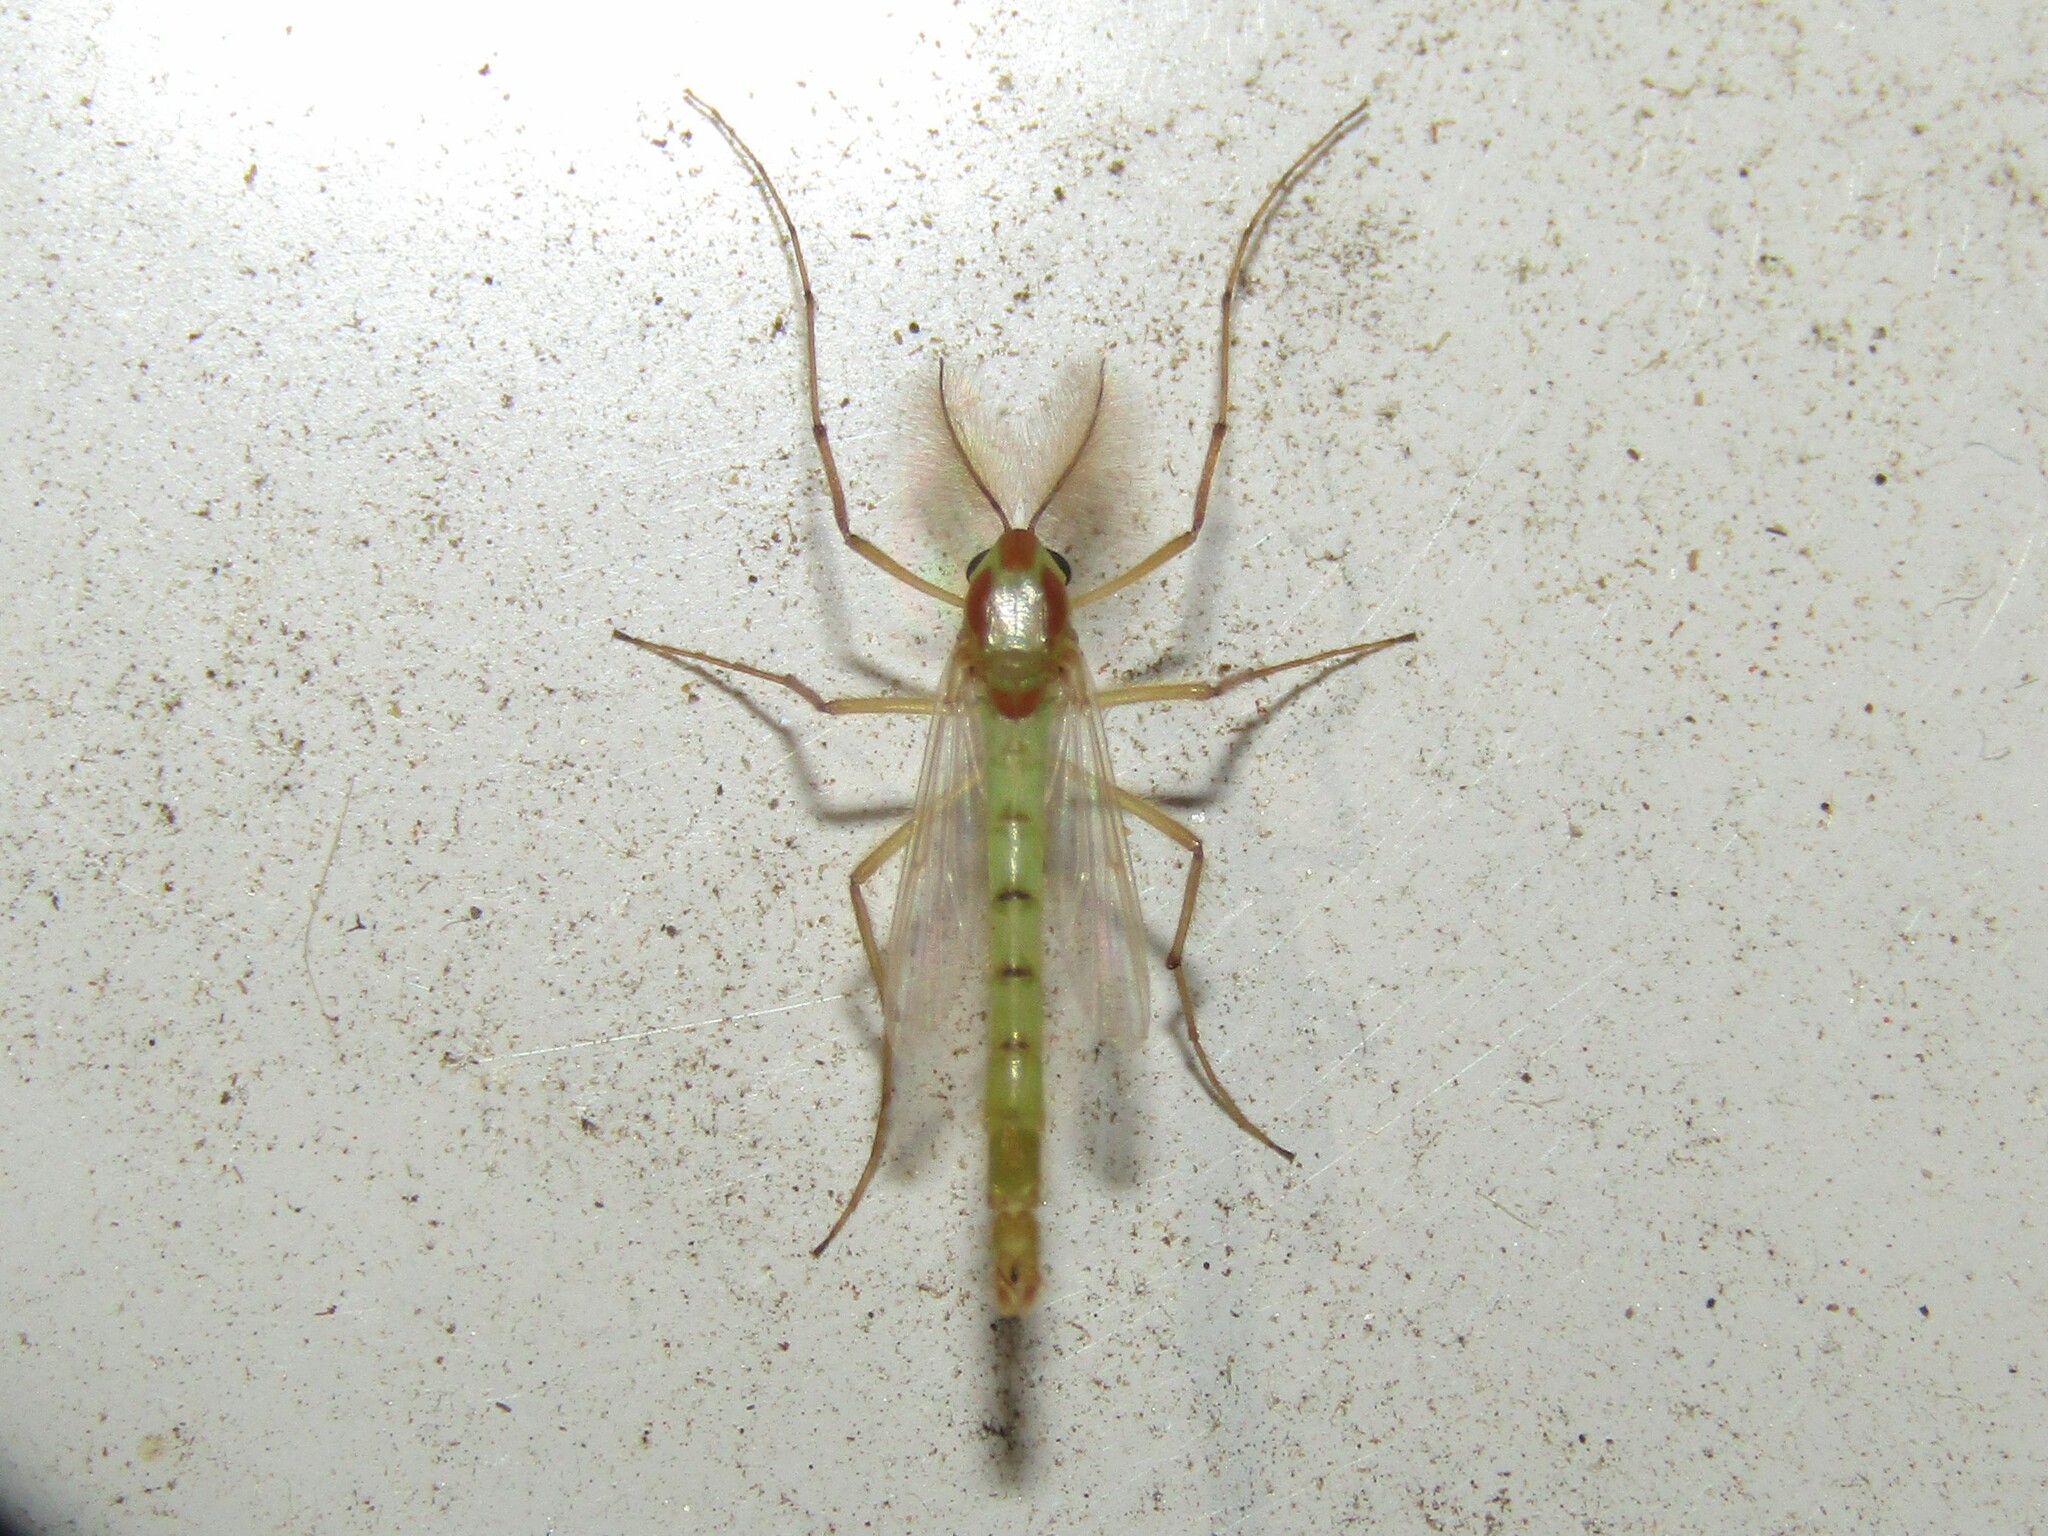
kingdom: Animalia
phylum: Arthropoda
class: Insecta
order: Diptera
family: Chironomidae
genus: Axarus
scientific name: Axarus
